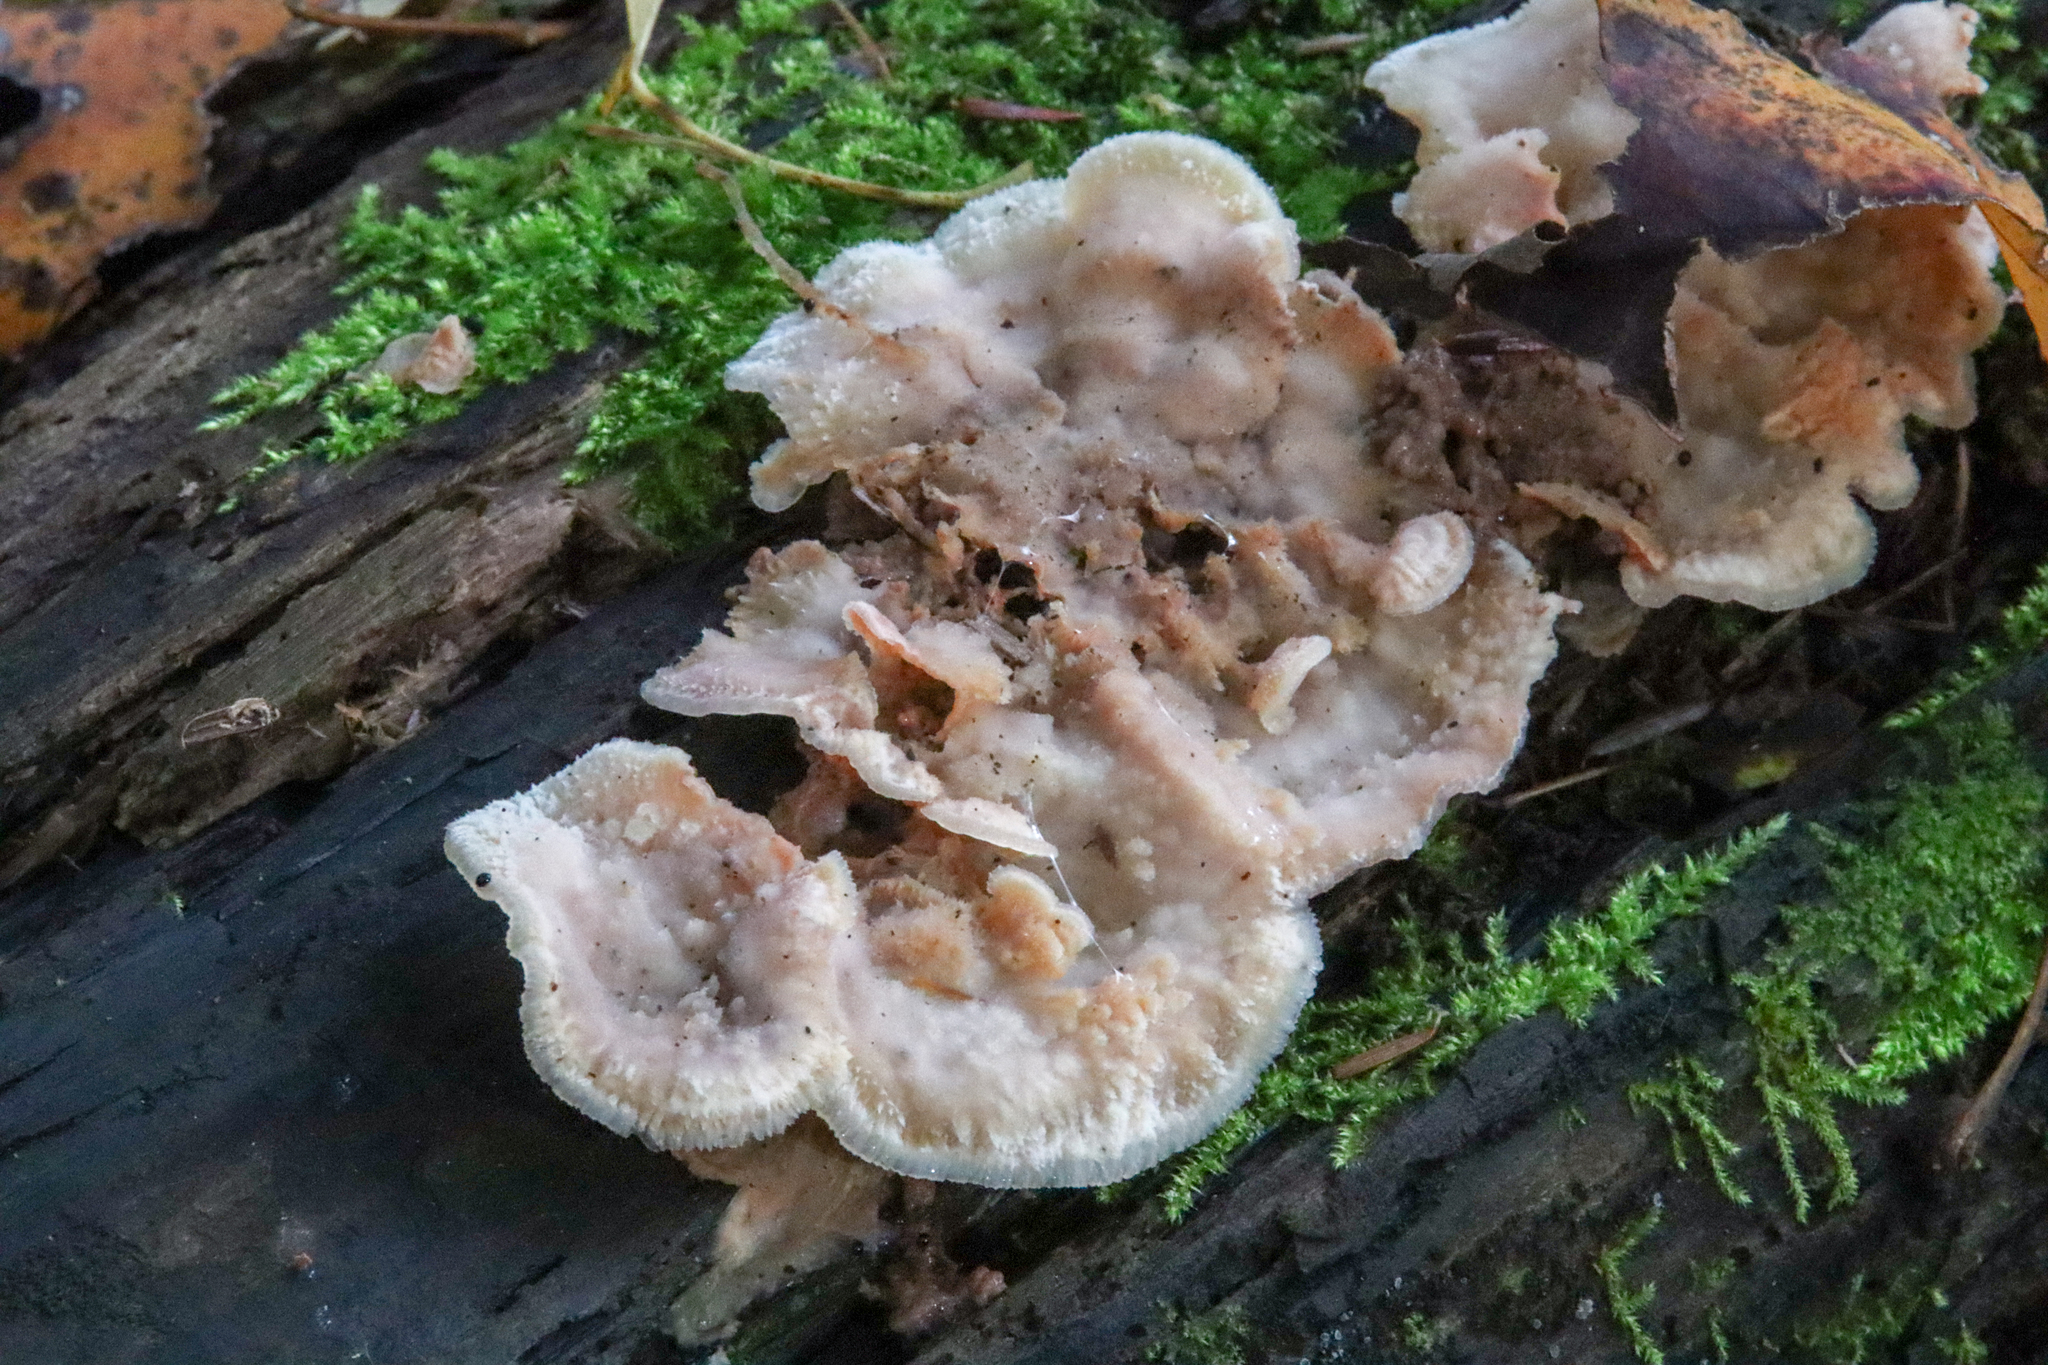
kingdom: Fungi
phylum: Basidiomycota
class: Agaricomycetes
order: Polyporales
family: Meruliaceae
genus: Phlebia
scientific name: Phlebia tremellosa
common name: Jelly rot
